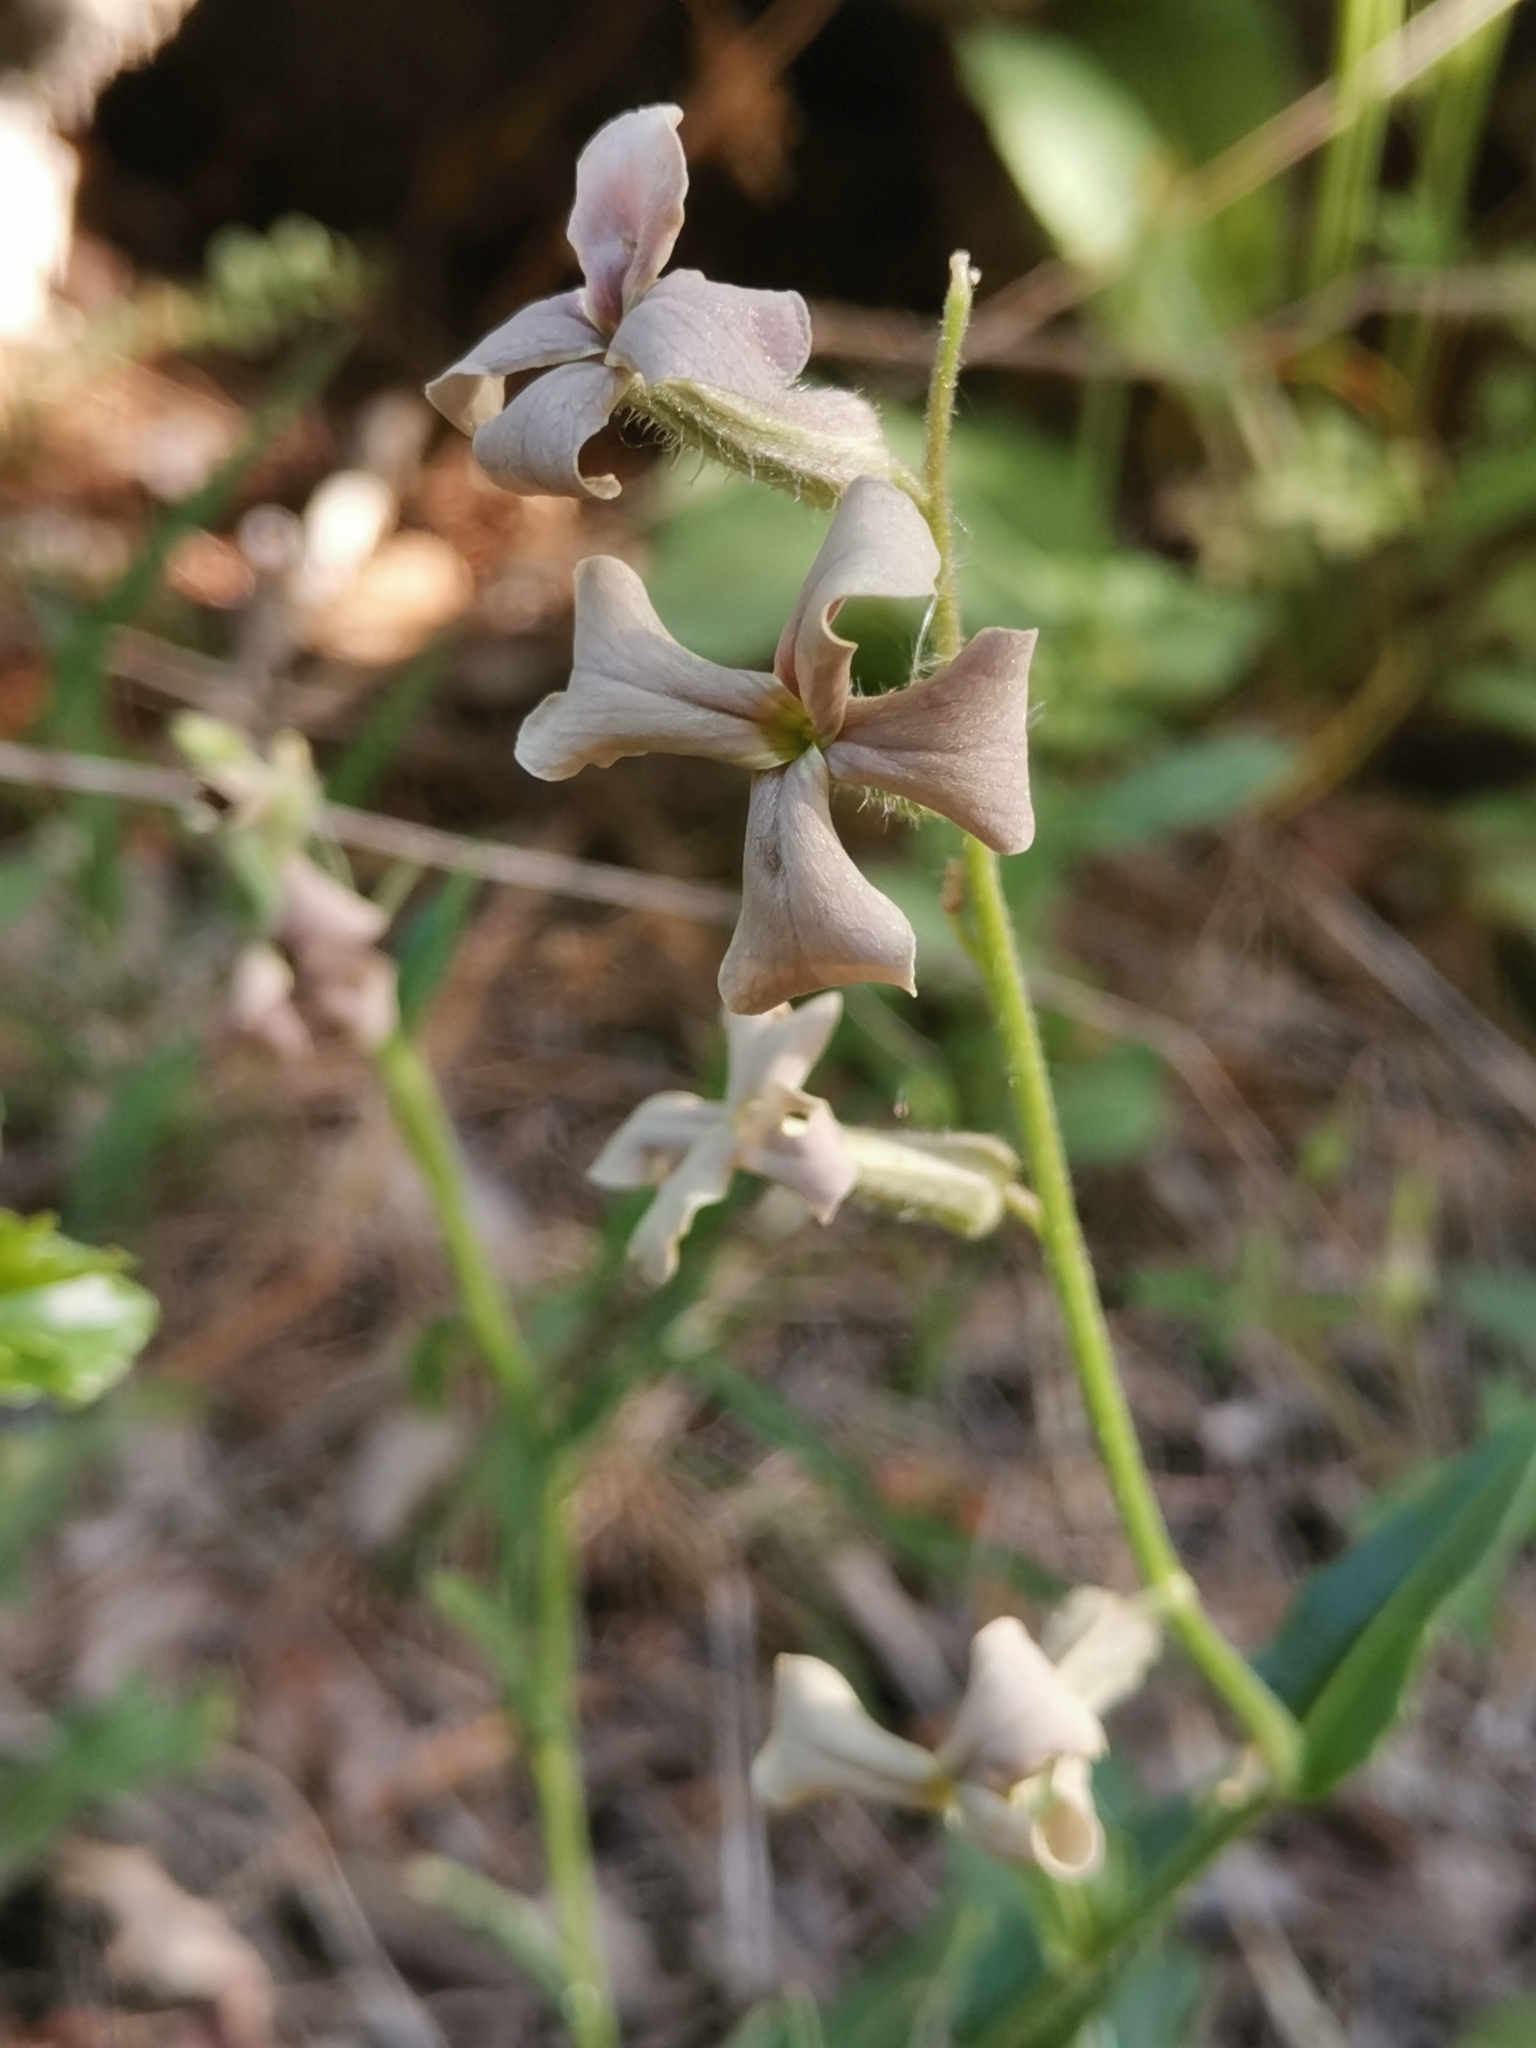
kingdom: Plantae
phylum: Tracheophyta
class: Magnoliopsida
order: Brassicales
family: Brassicaceae
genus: Hesperis
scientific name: Hesperis laciniata
